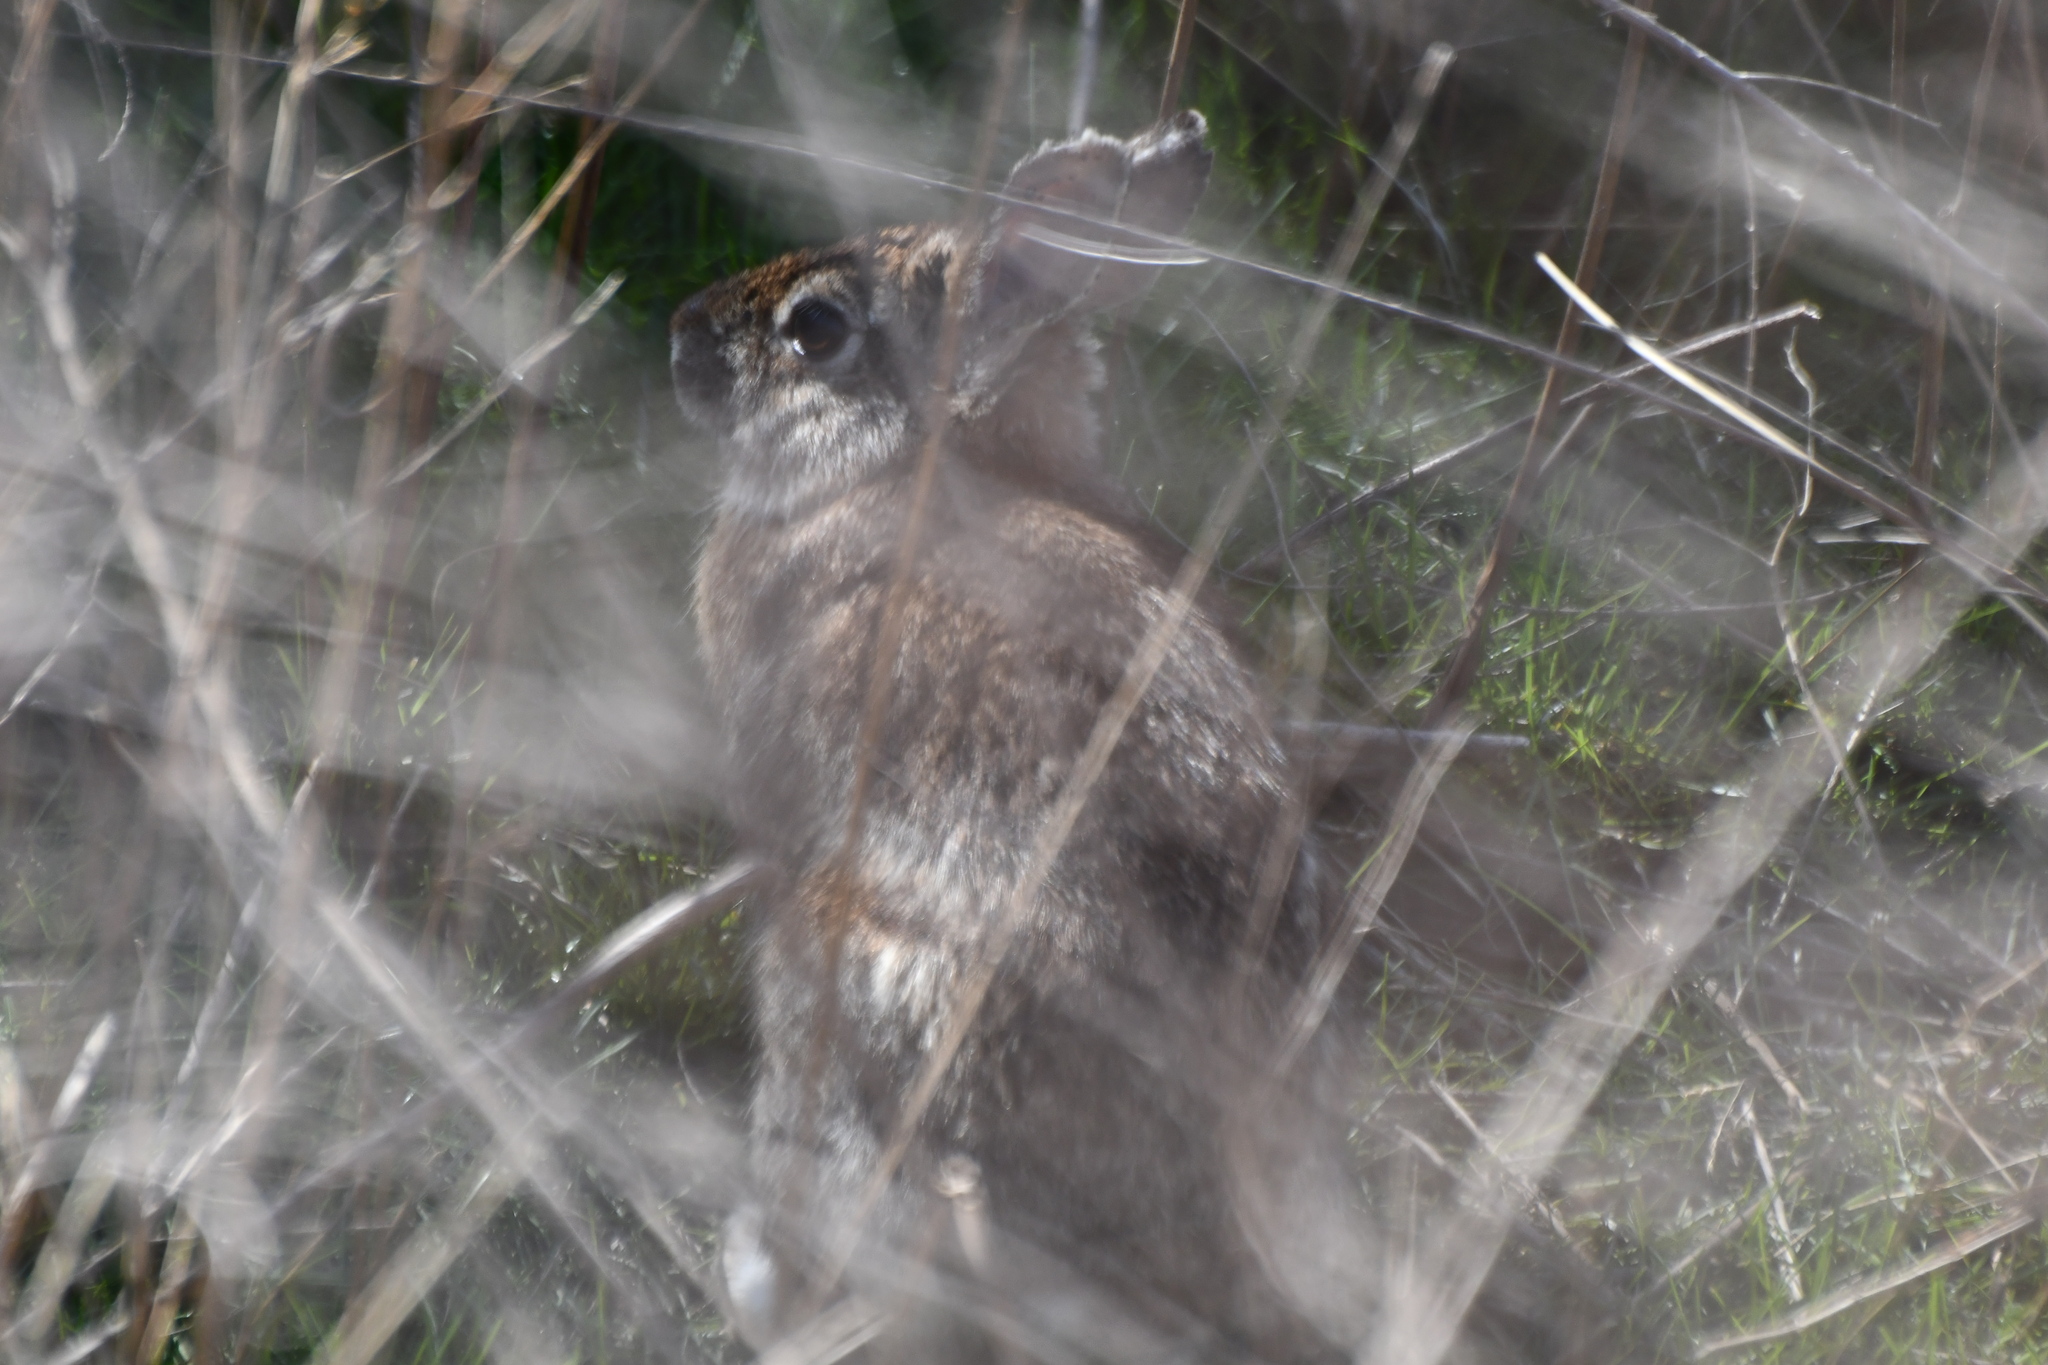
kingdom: Animalia
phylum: Chordata
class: Mammalia
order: Lagomorpha
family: Leporidae
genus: Sylvilagus
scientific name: Sylvilagus floridanus
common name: Eastern cottontail
